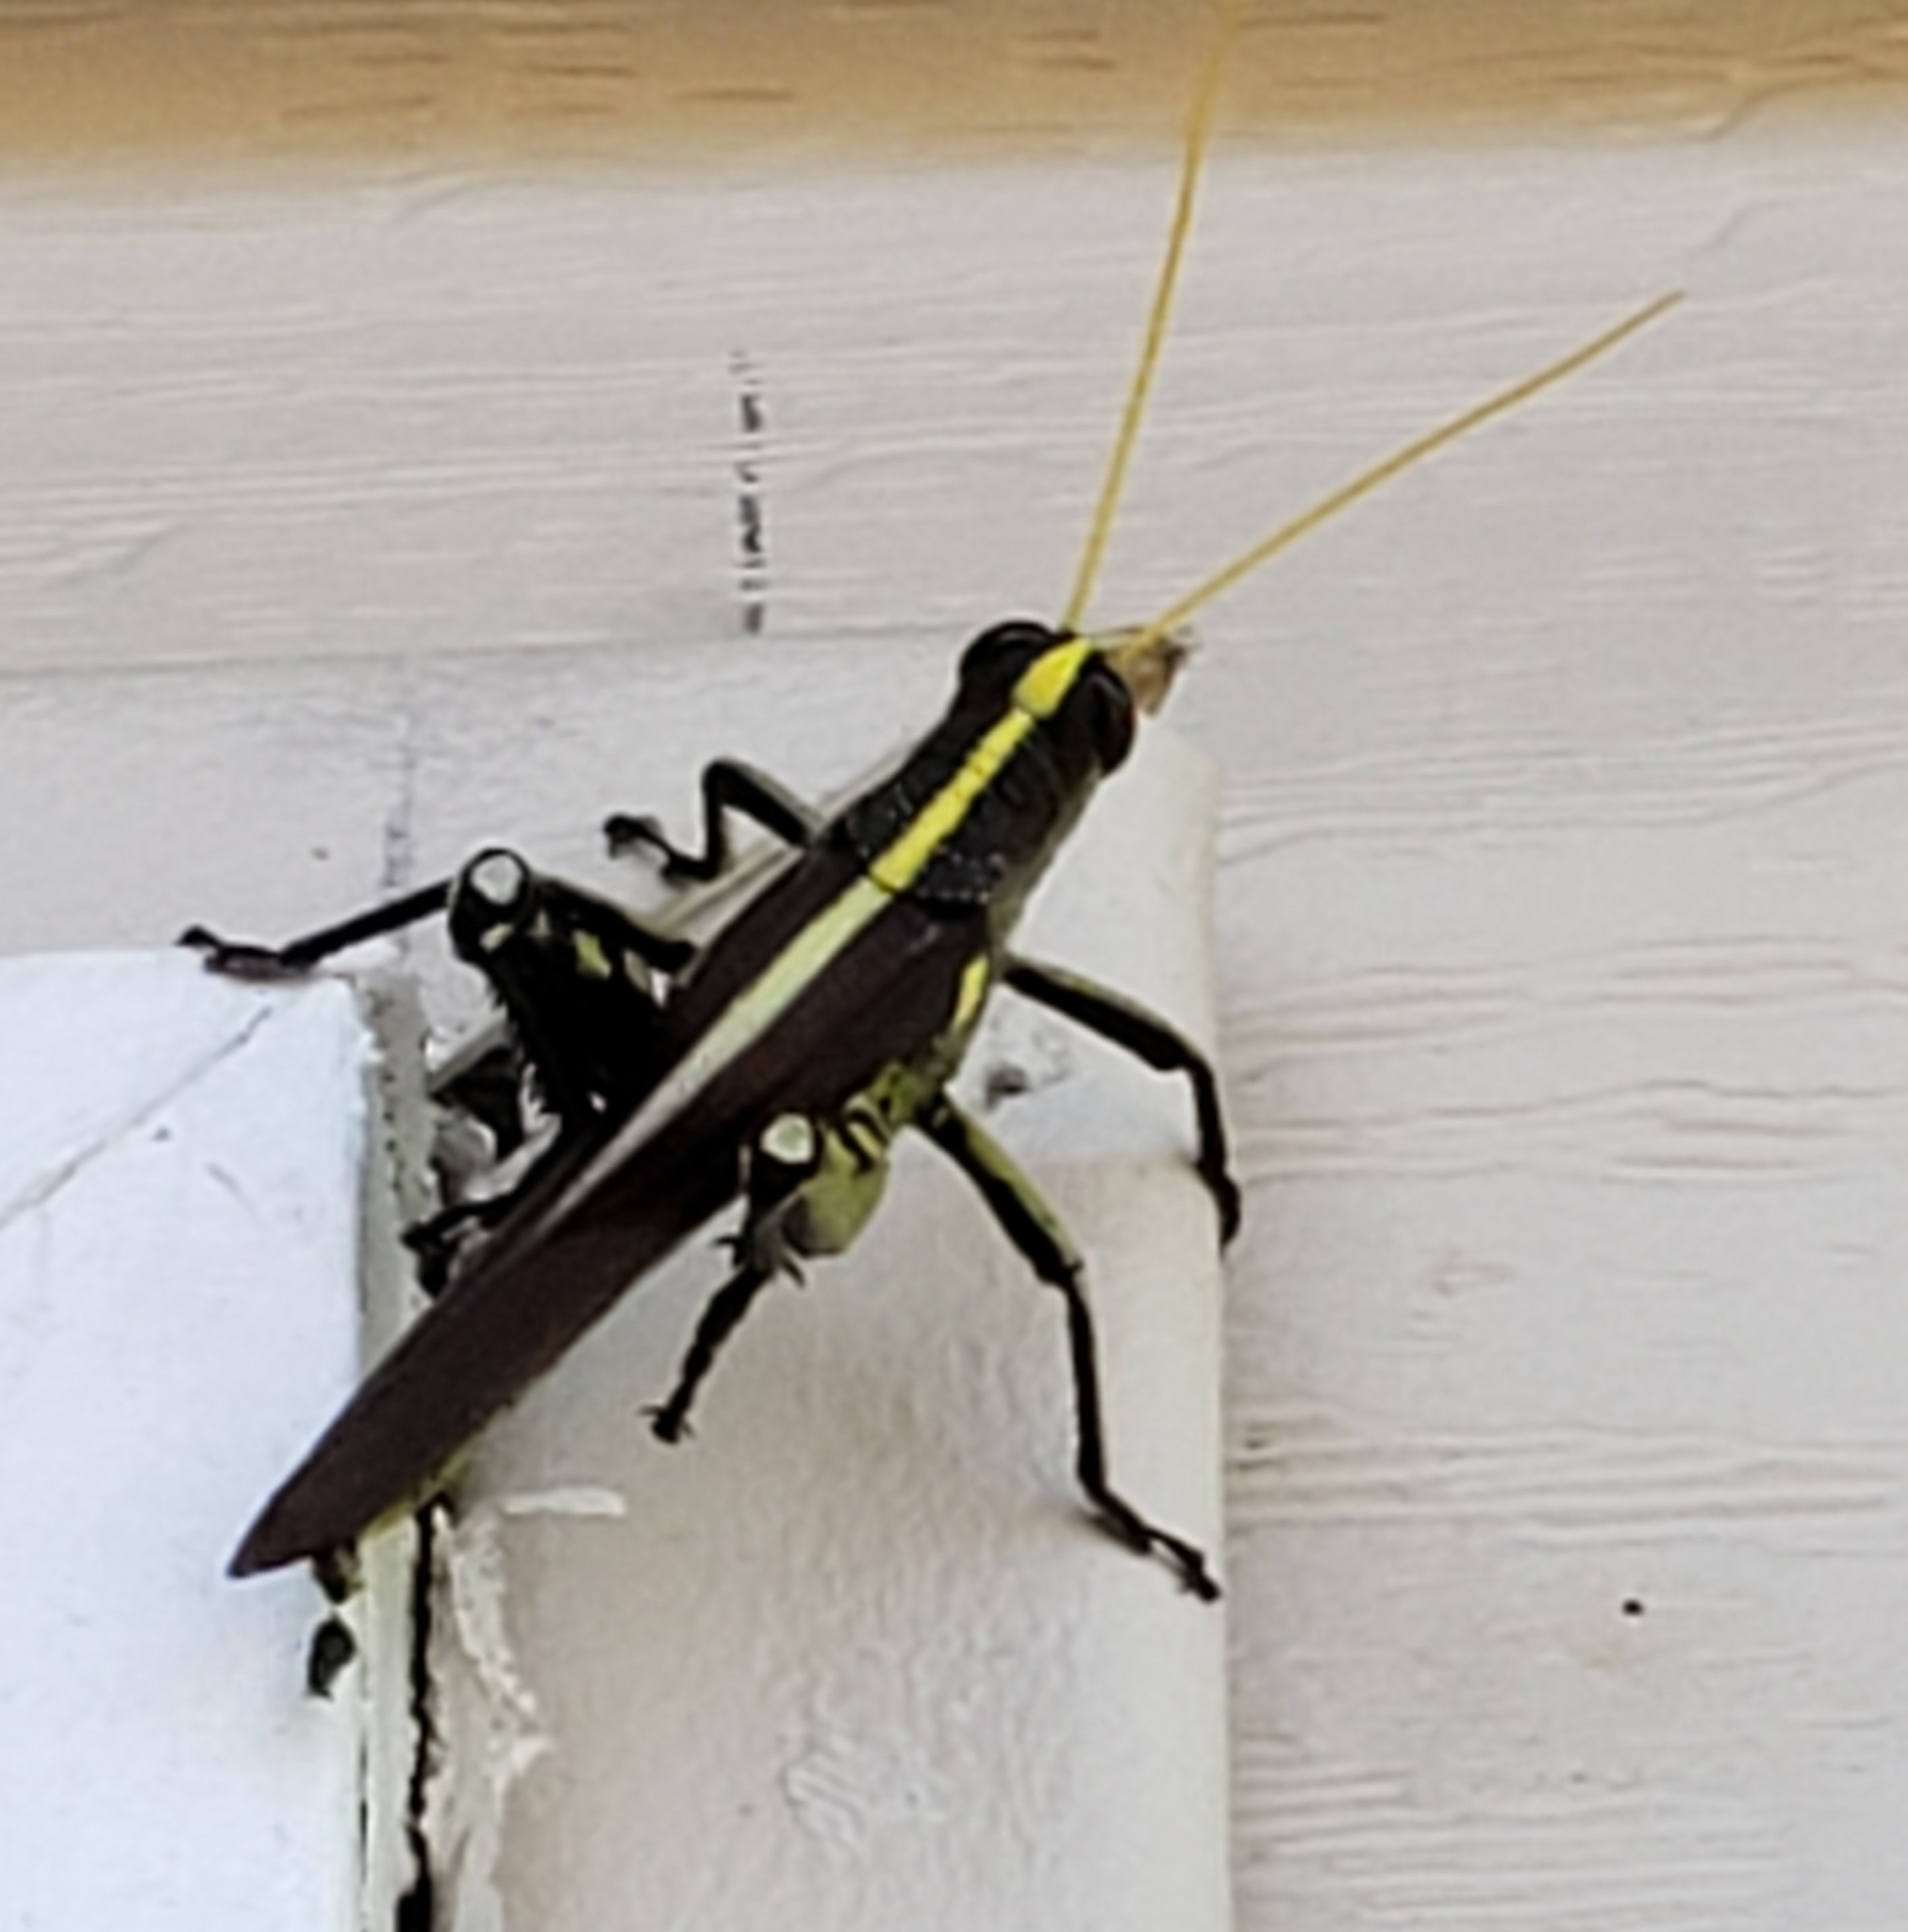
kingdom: Animalia
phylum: Arthropoda
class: Insecta
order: Orthoptera
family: Acrididae
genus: Schistocerca
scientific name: Schistocerca obscura
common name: Obscure bird grasshopper
